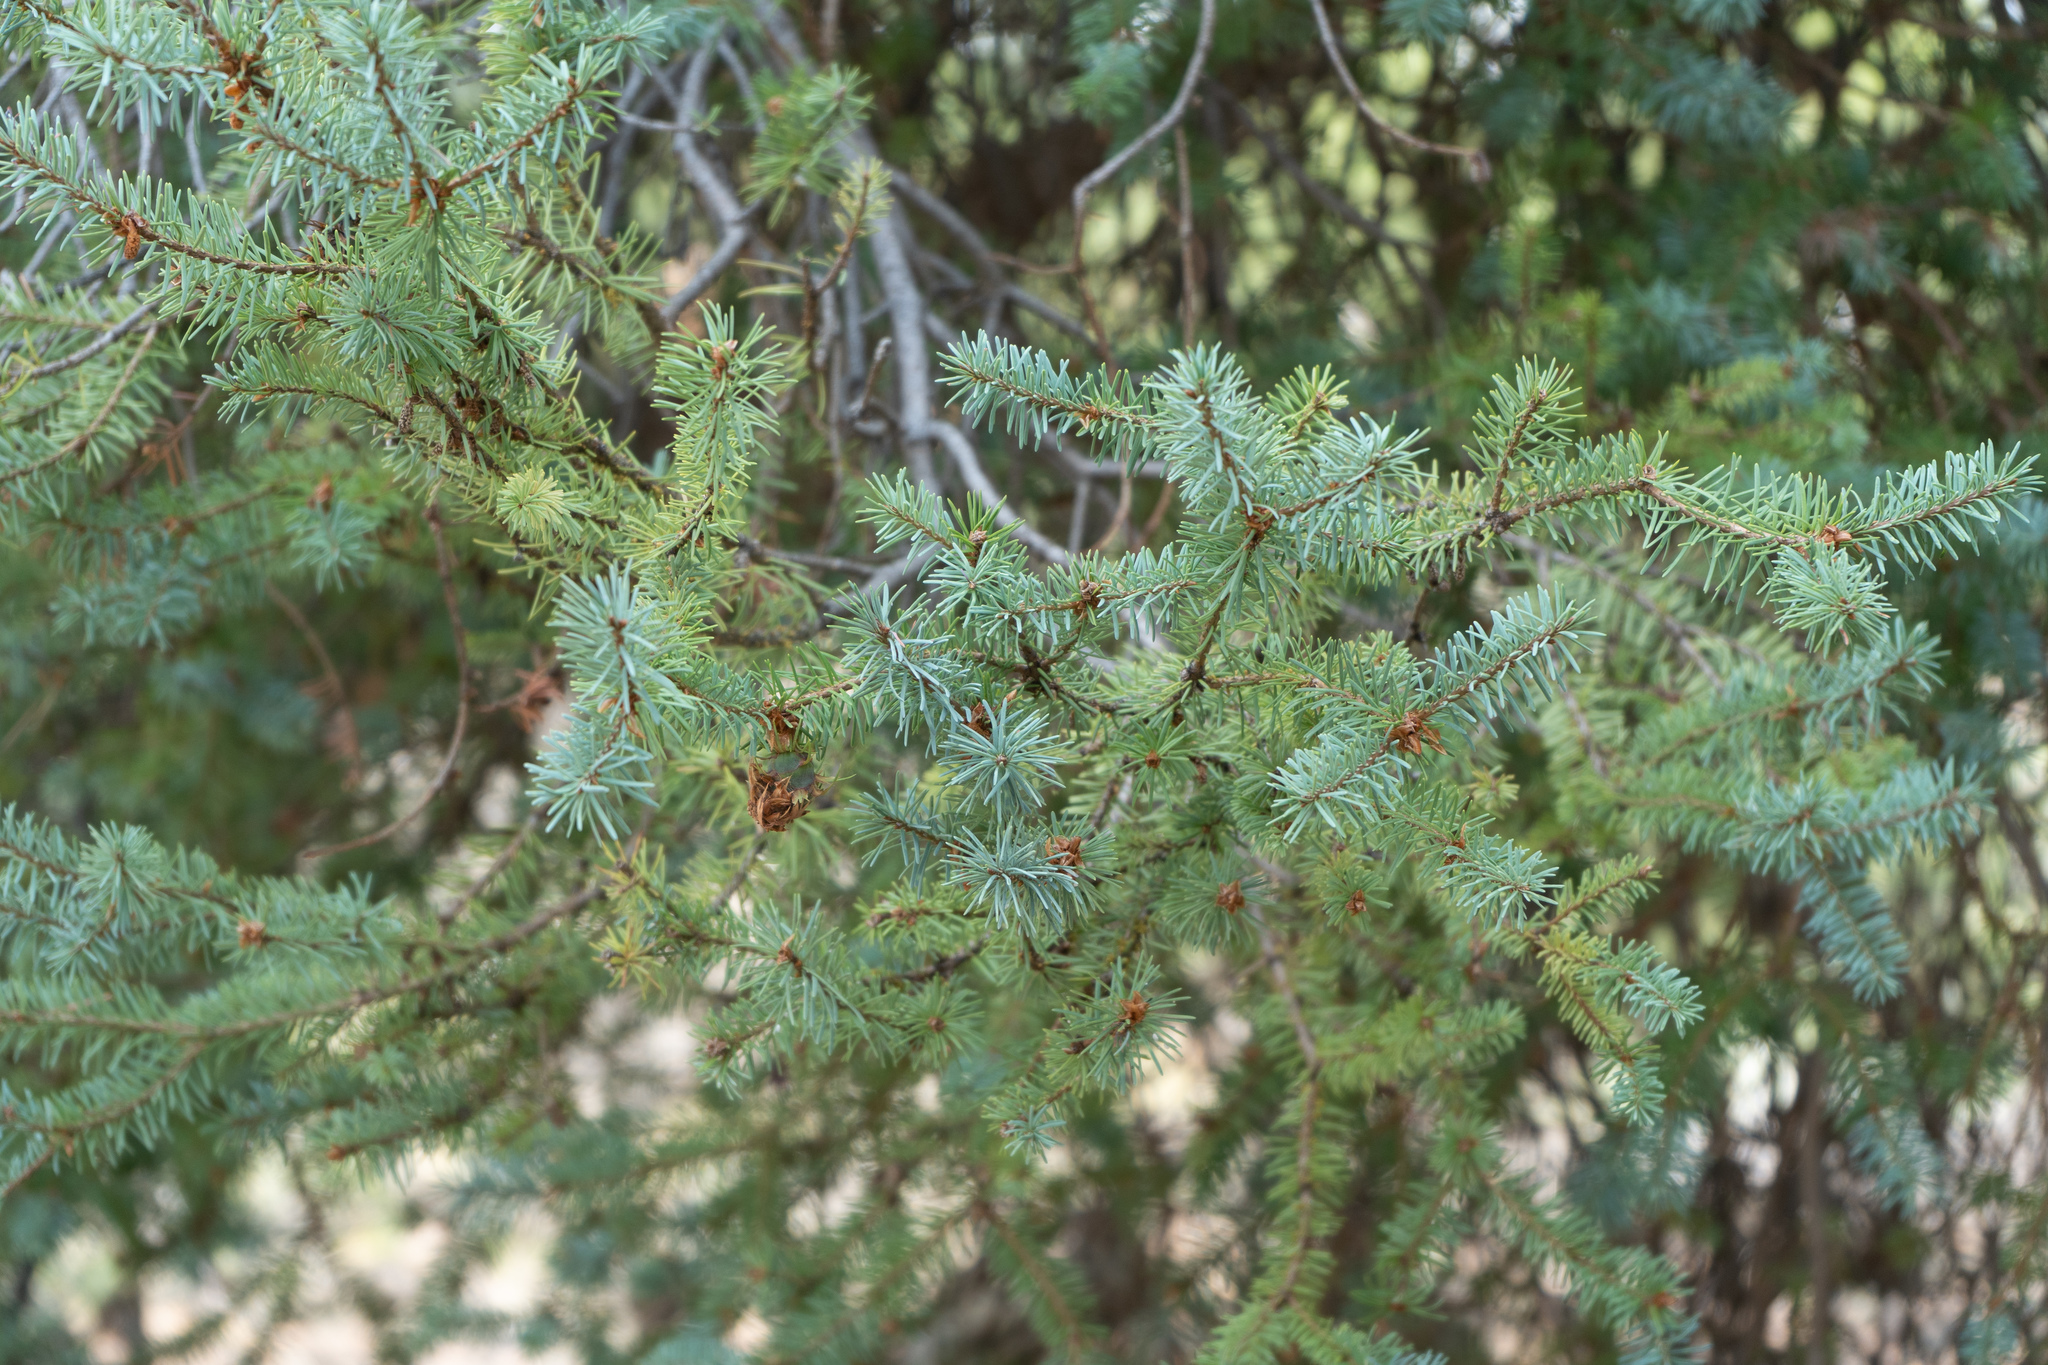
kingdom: Plantae
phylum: Tracheophyta
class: Pinopsida
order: Pinales
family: Pinaceae
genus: Pseudotsuga
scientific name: Pseudotsuga menziesii
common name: Douglas fir
